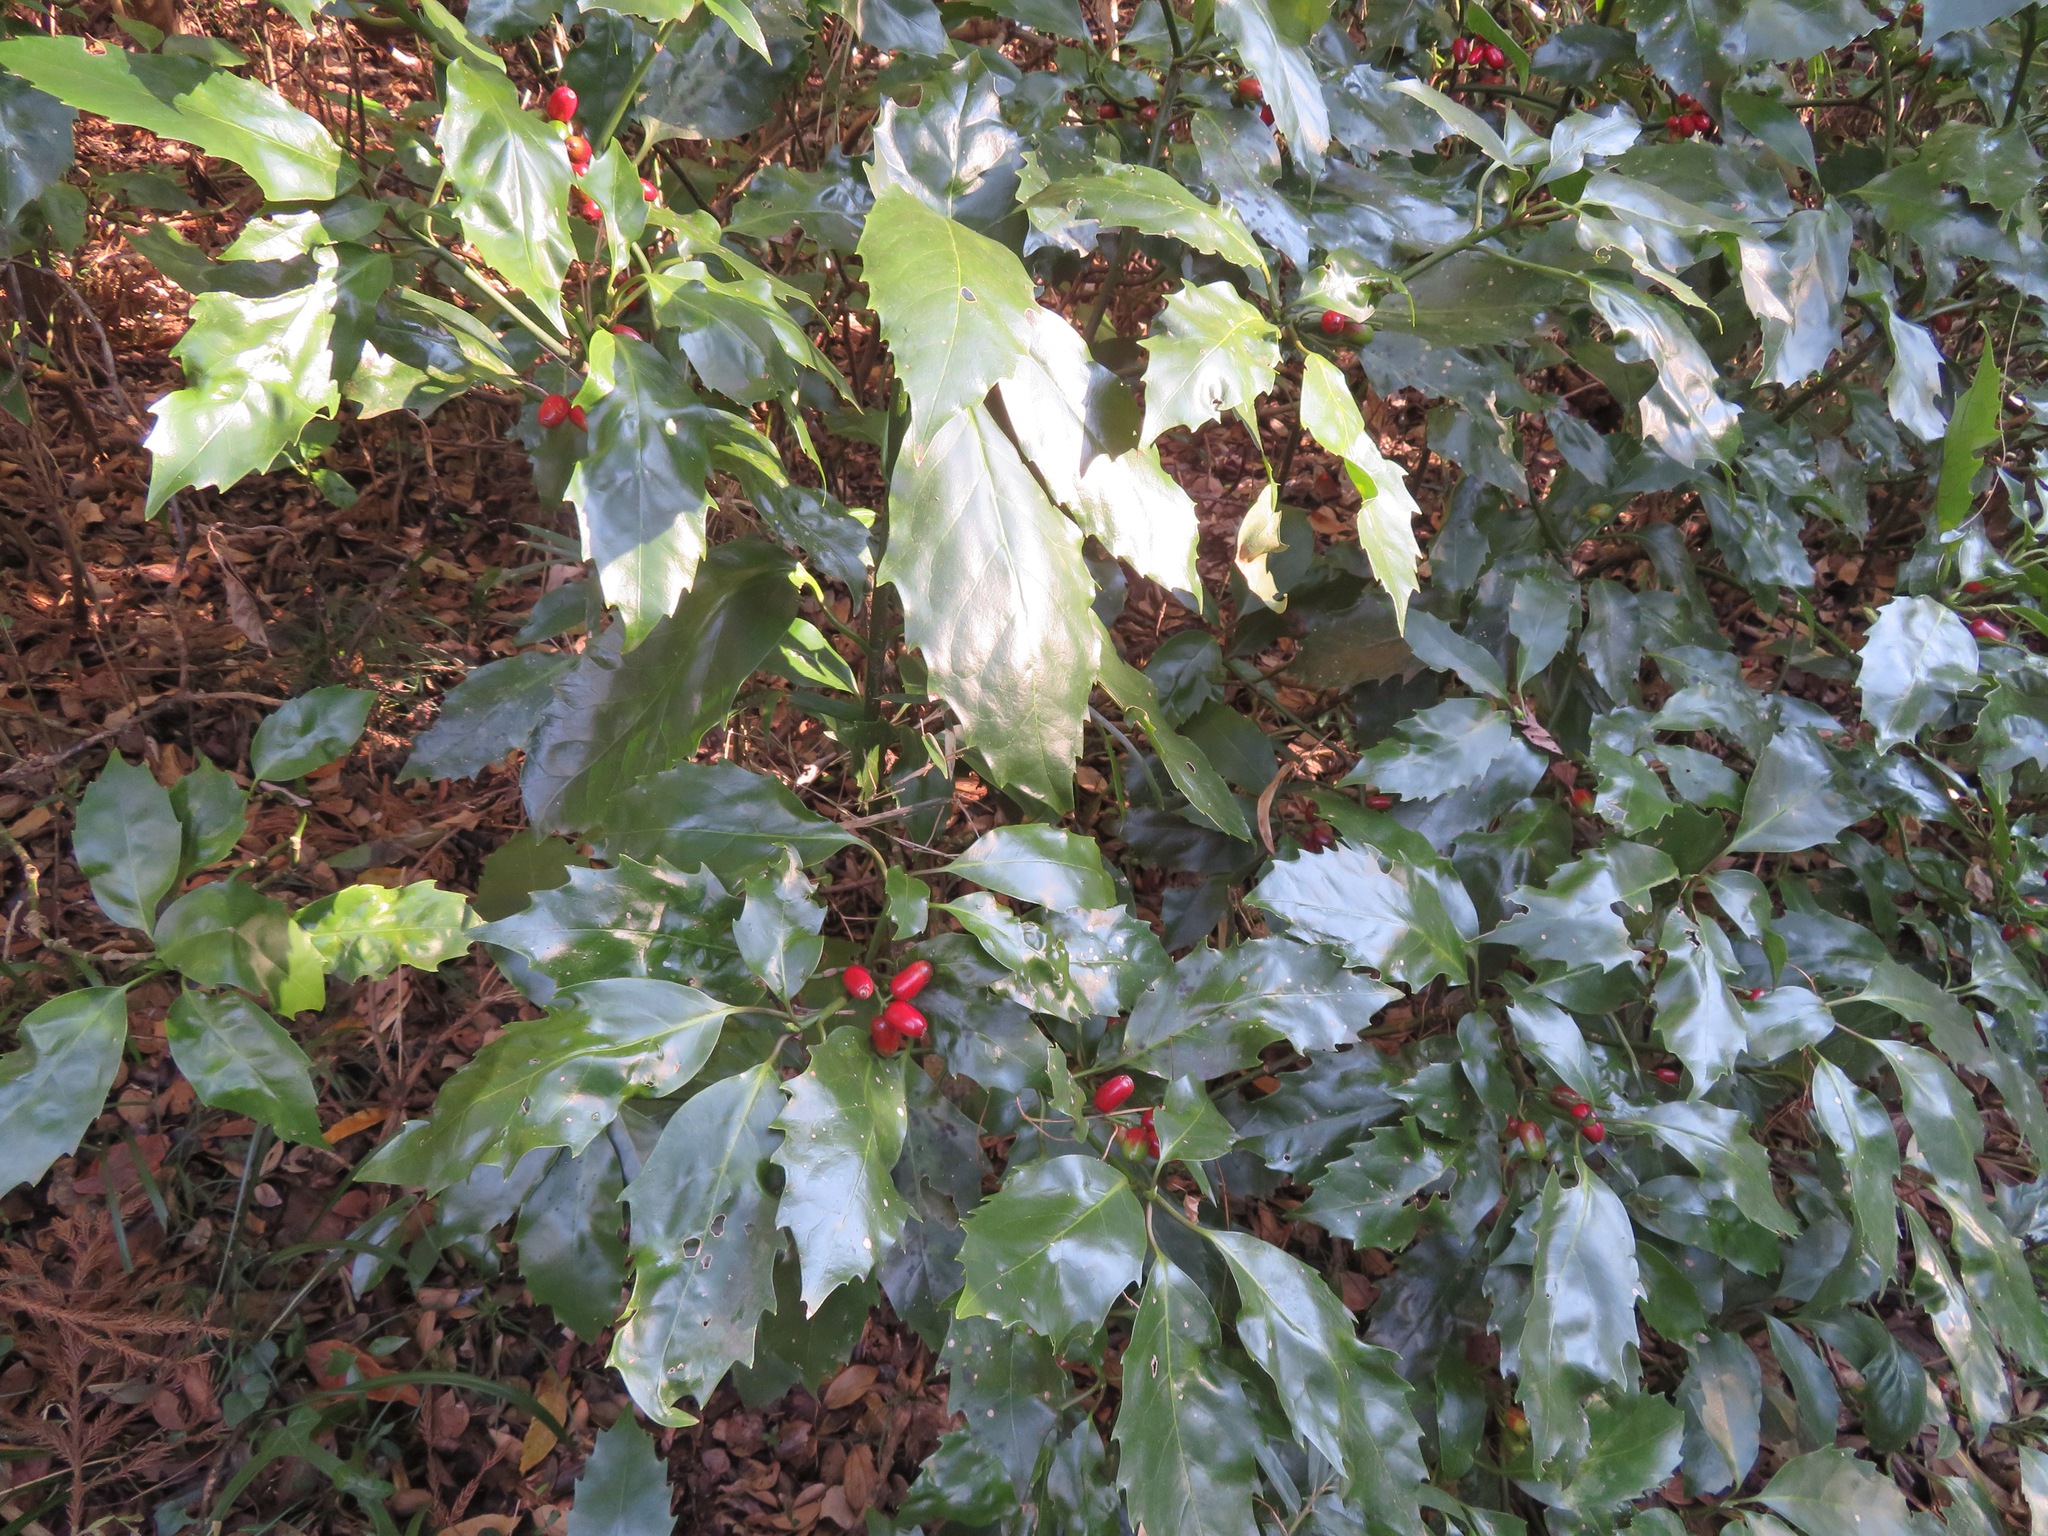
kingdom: Plantae
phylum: Tracheophyta
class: Magnoliopsida
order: Garryales
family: Garryaceae
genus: Aucuba
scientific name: Aucuba japonica
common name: Spotted-laurel
